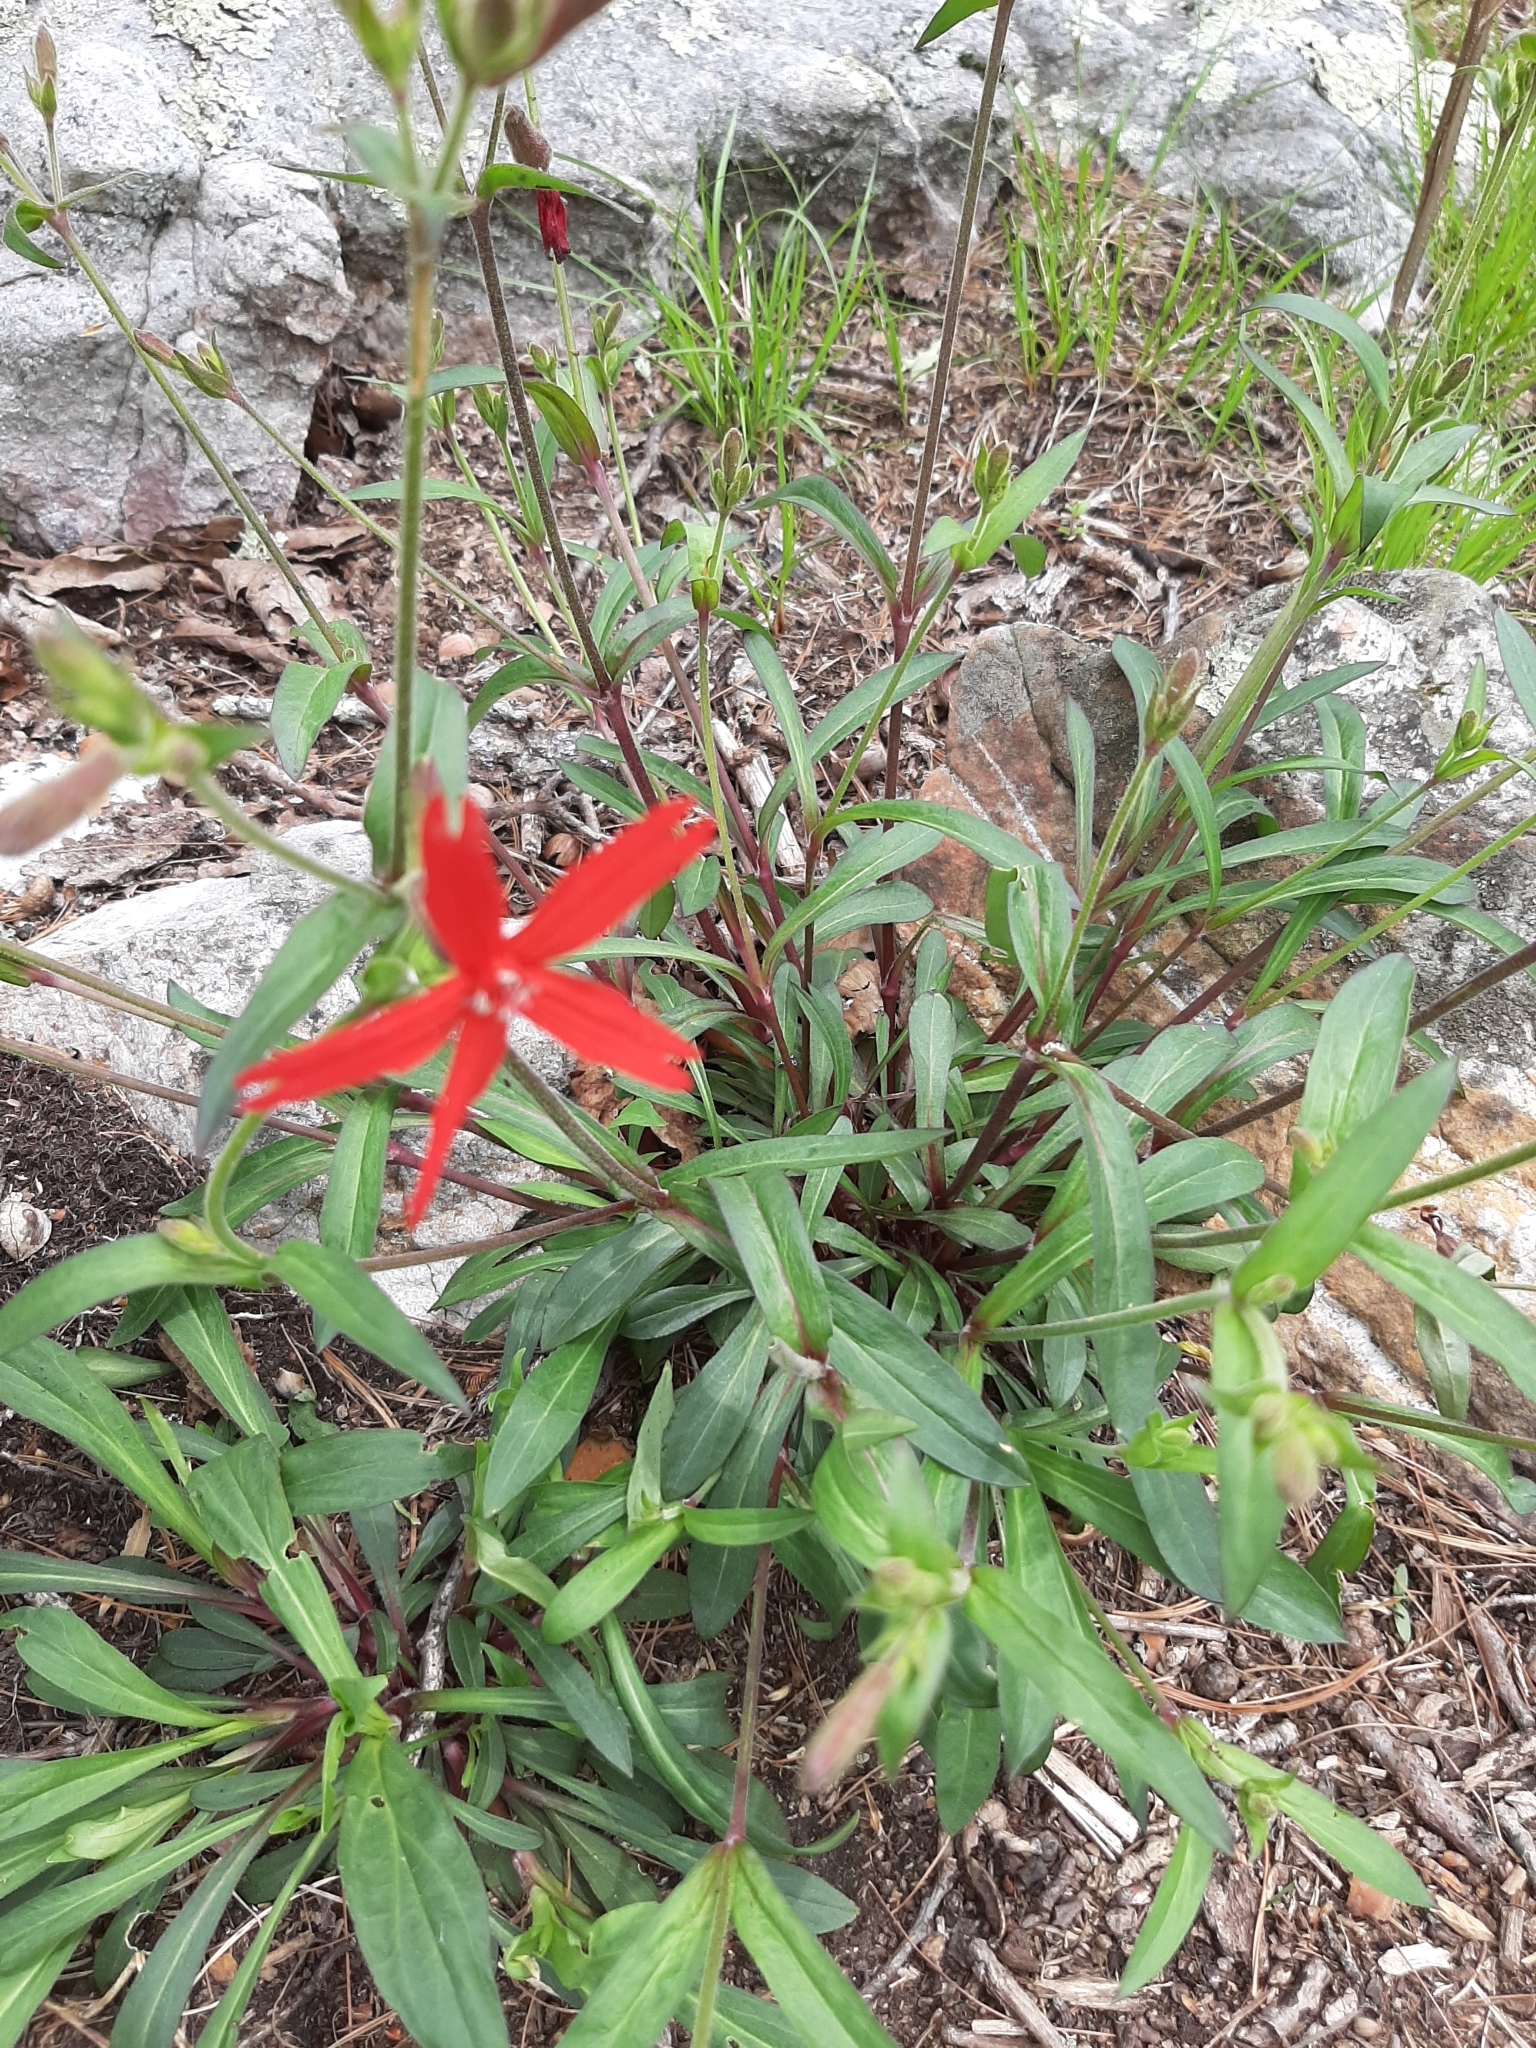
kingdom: Plantae
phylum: Tracheophyta
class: Magnoliopsida
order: Caryophyllales
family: Caryophyllaceae
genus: Silene
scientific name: Silene virginica
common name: Fire-pink
